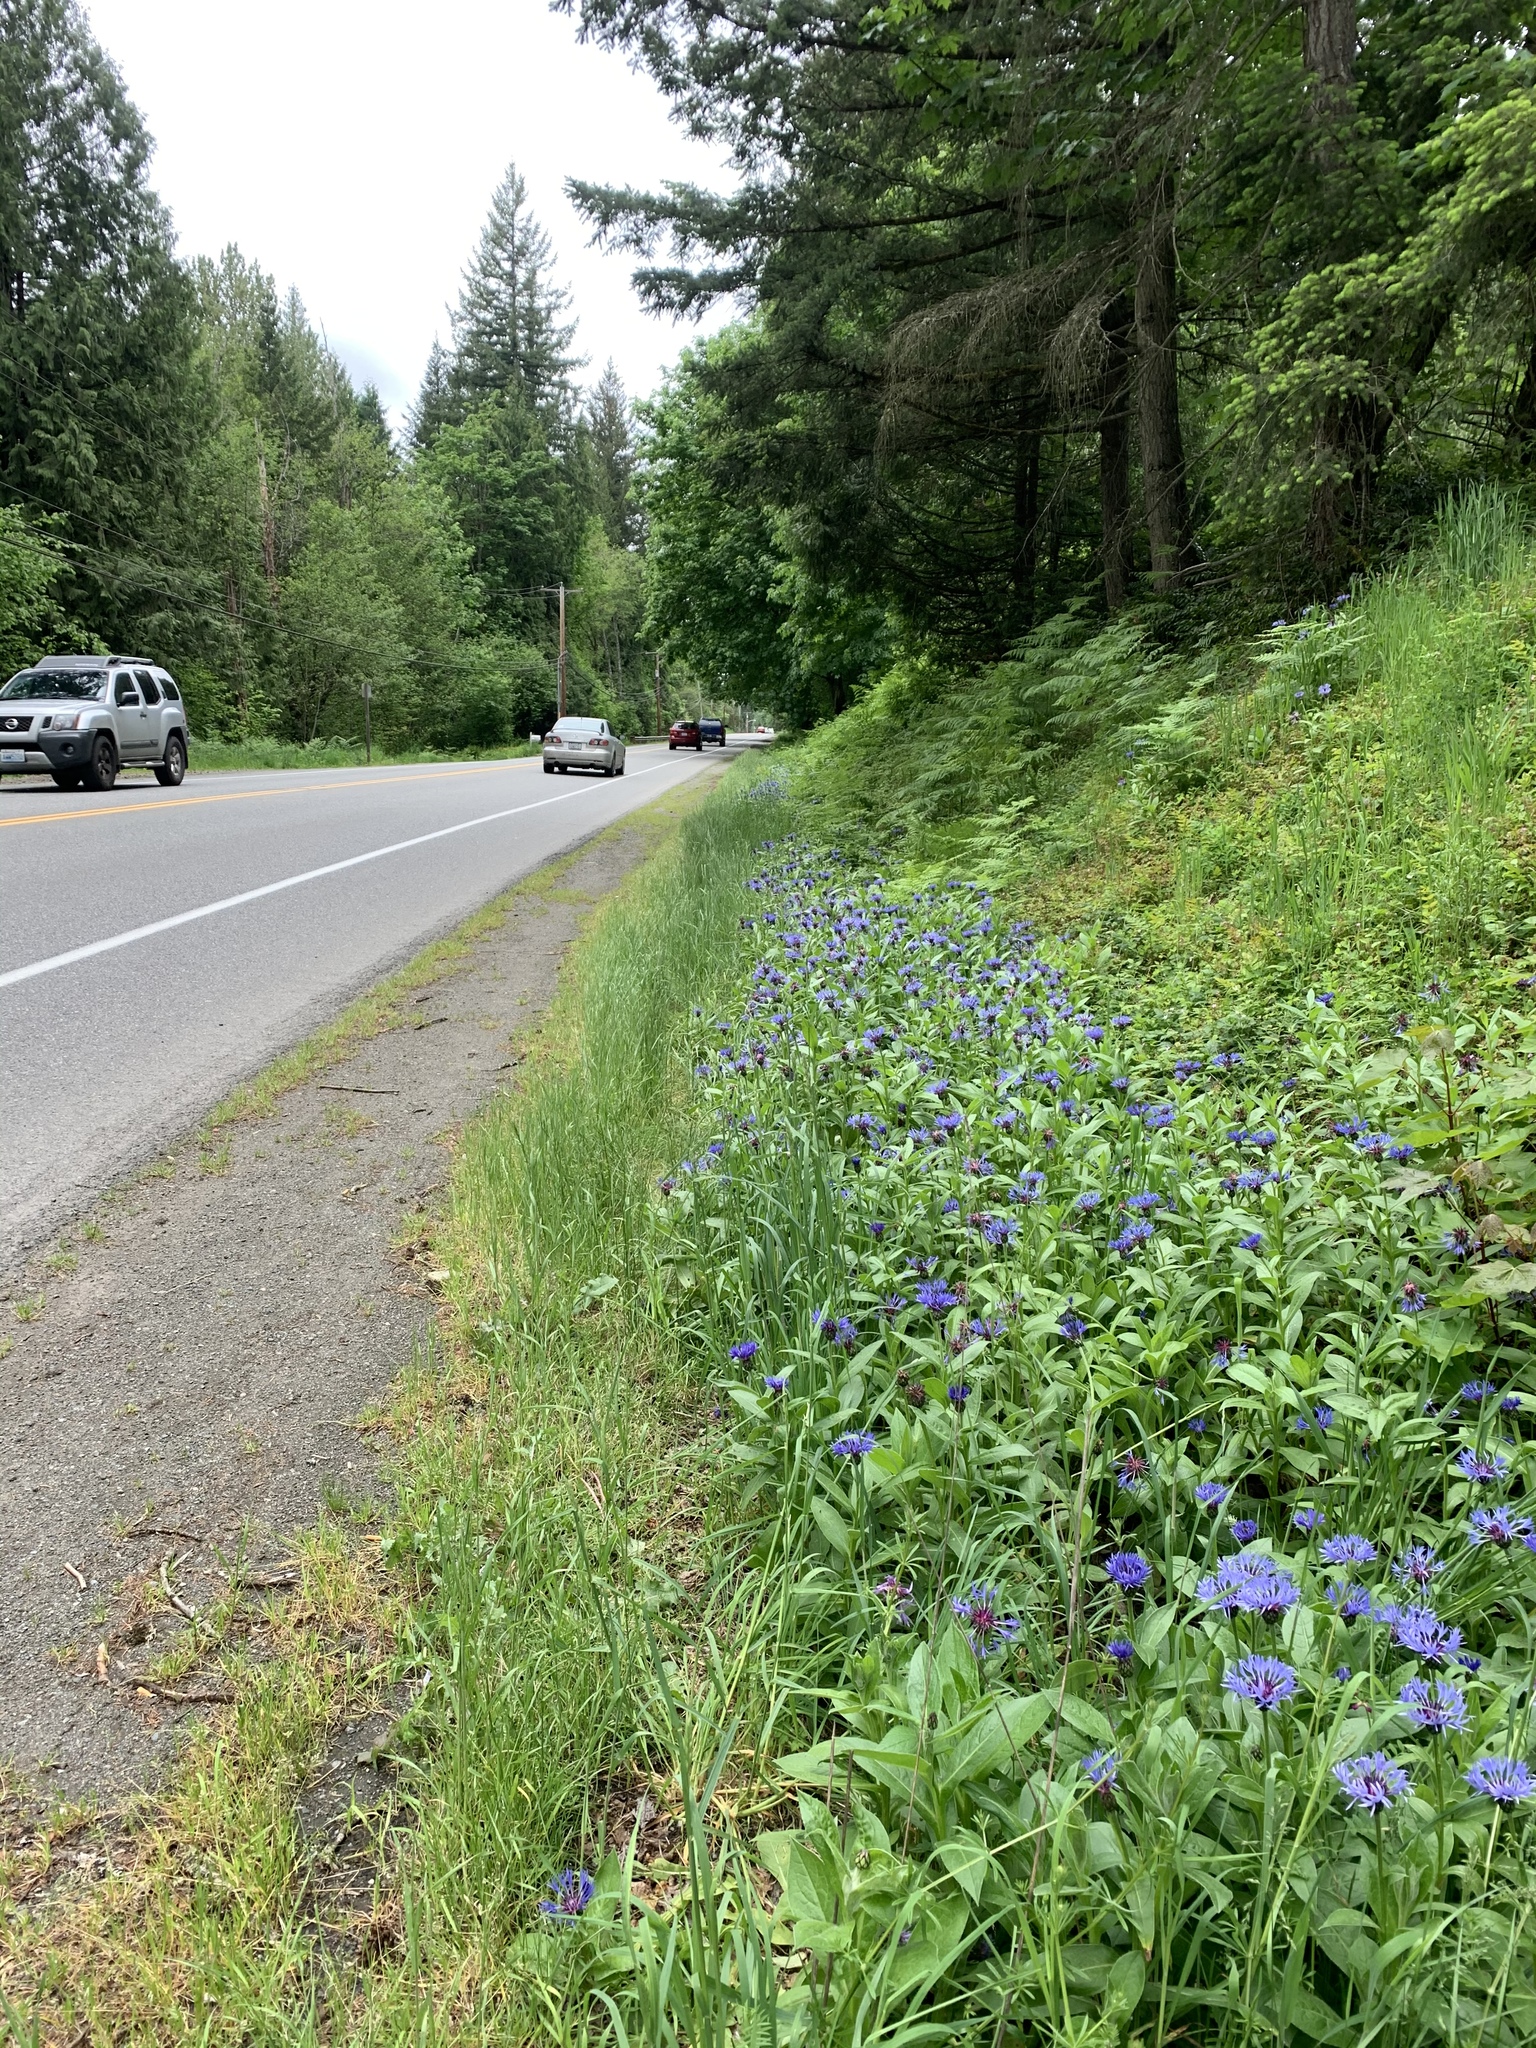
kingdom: Plantae
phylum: Tracheophyta
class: Magnoliopsida
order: Asterales
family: Asteraceae
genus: Centaurea
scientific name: Centaurea montana
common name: Perennial cornflower
